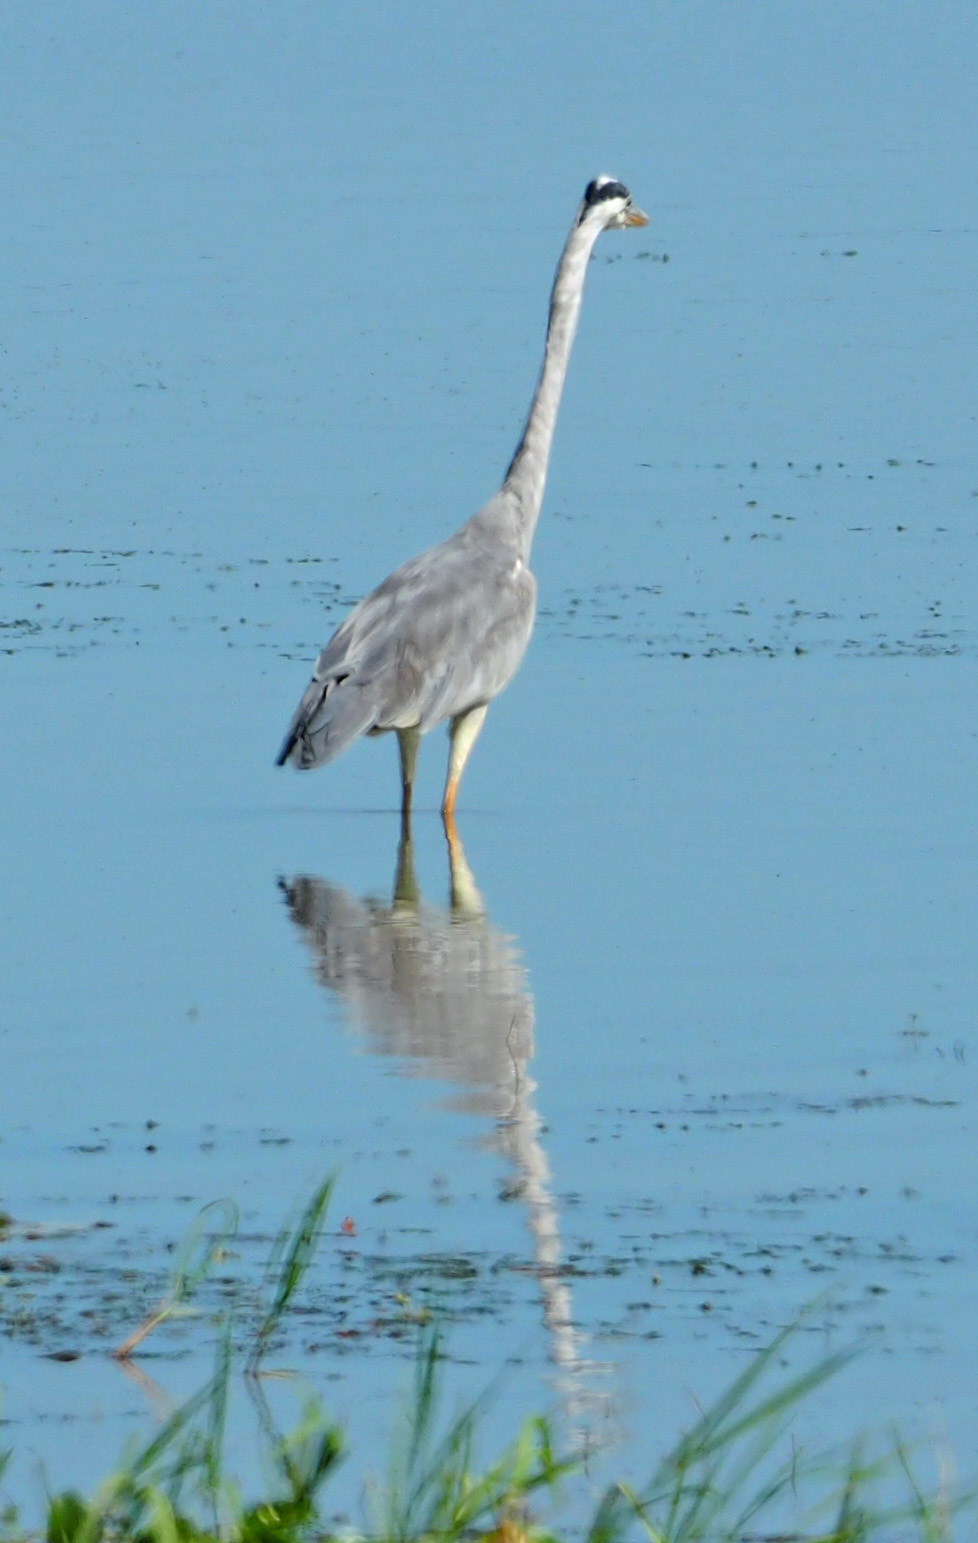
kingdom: Animalia
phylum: Chordata
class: Aves
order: Pelecaniformes
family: Ardeidae
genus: Ardea
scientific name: Ardea cinerea
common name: Grey heron
